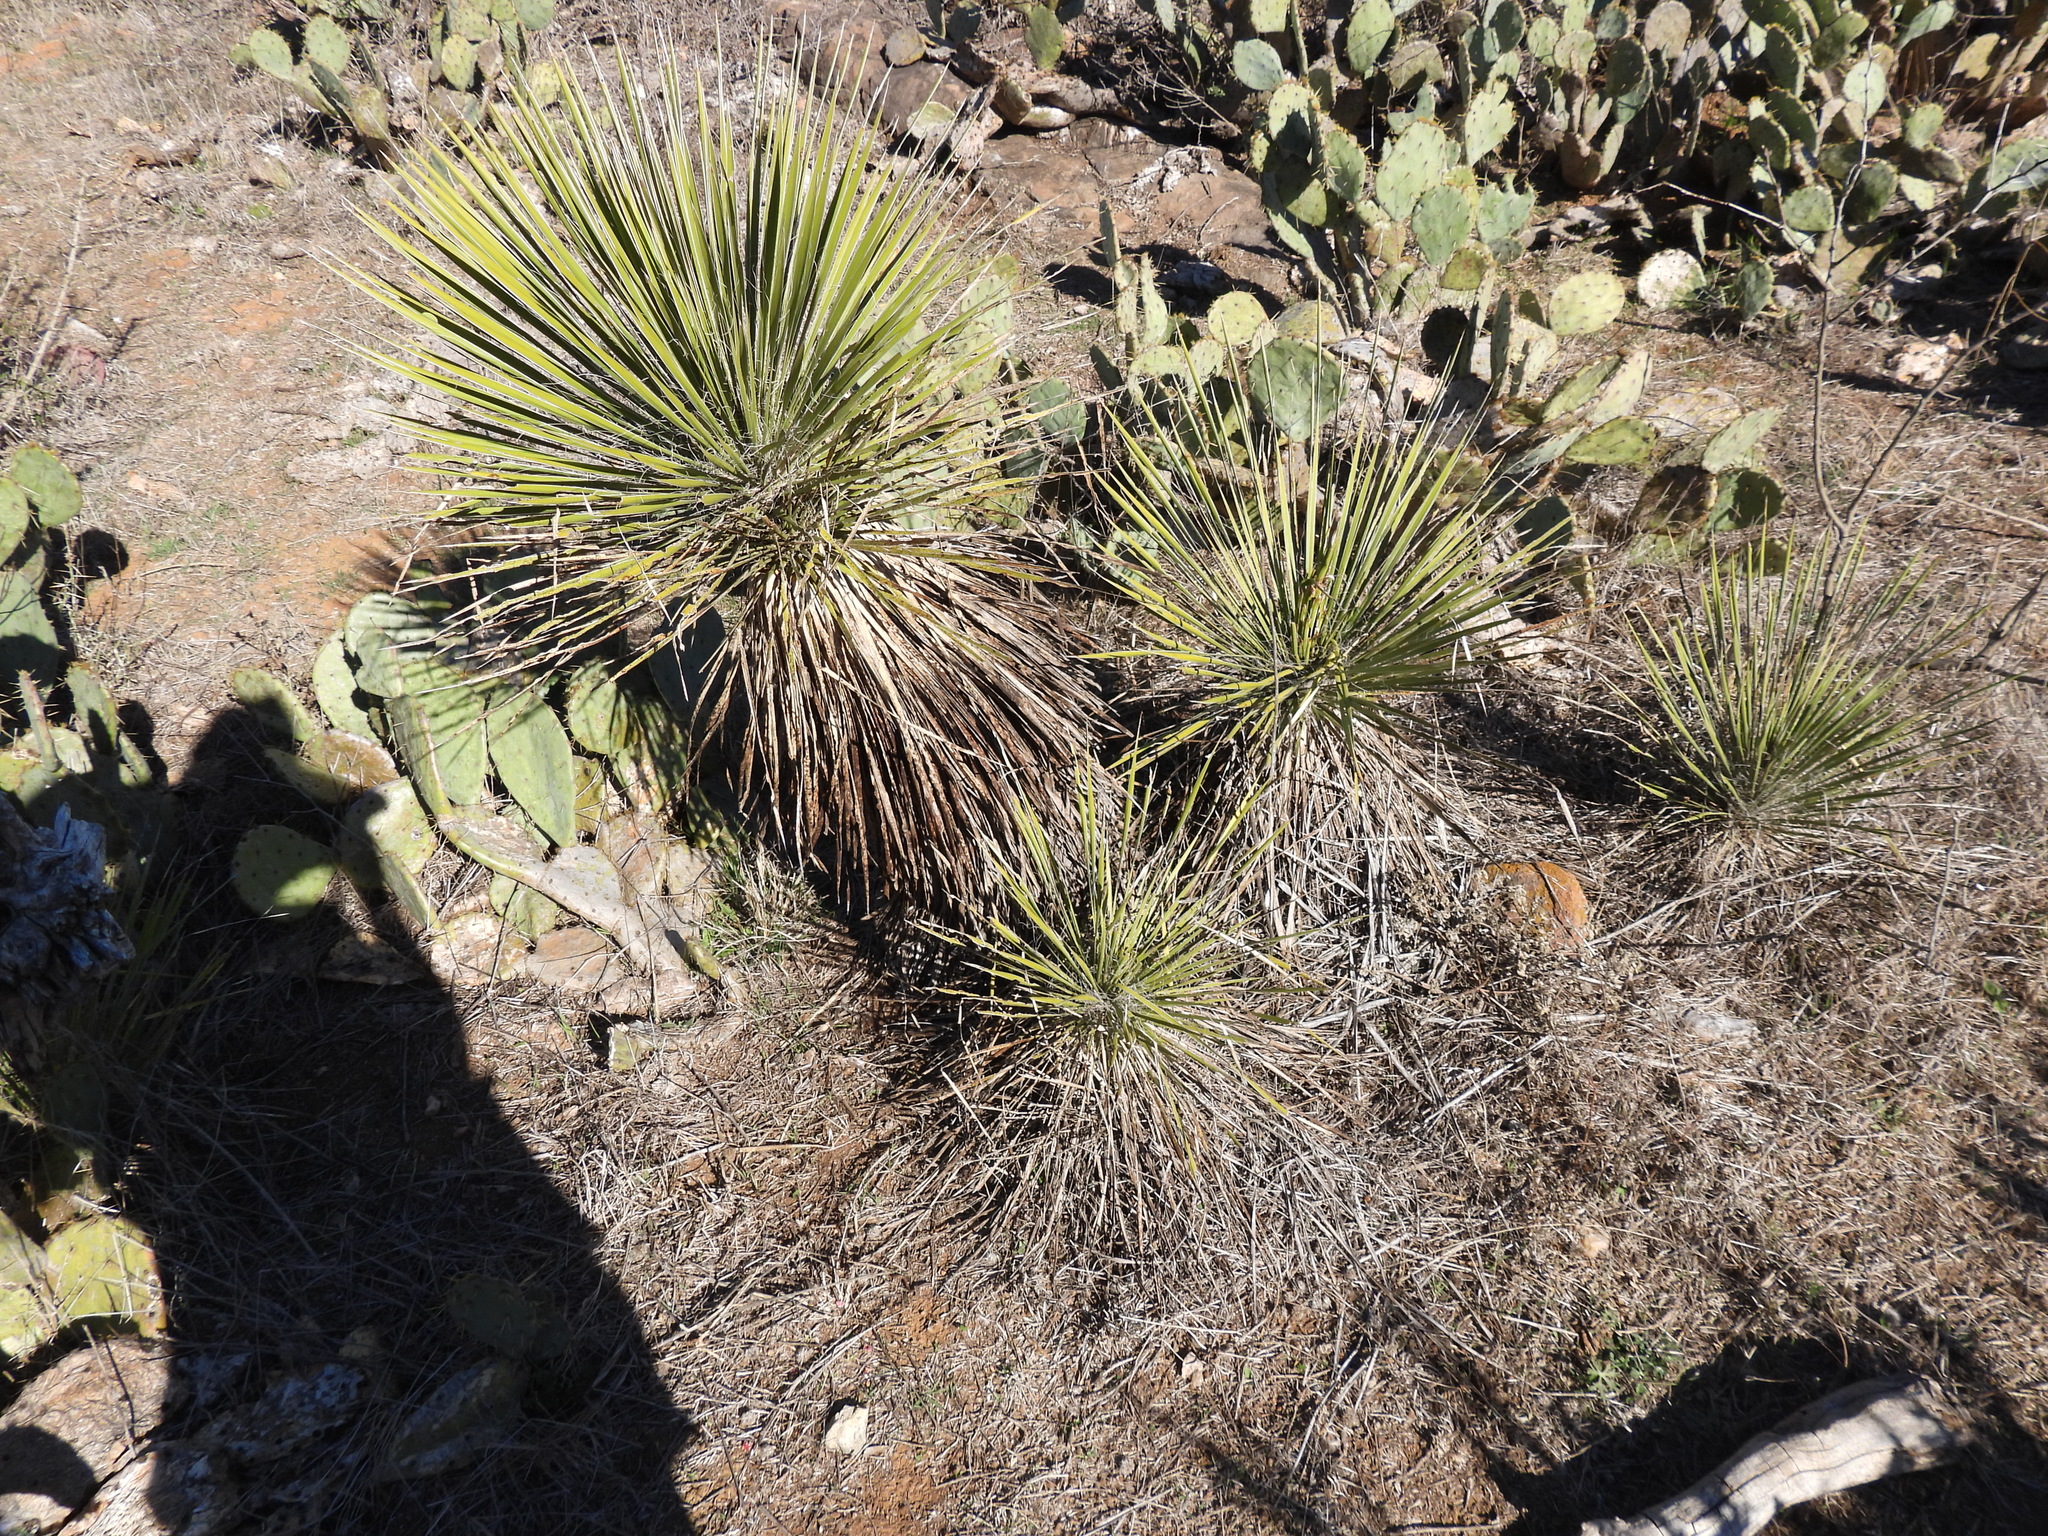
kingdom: Plantae
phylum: Tracheophyta
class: Liliopsida
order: Asparagales
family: Asparagaceae
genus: Yucca
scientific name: Yucca constricta
